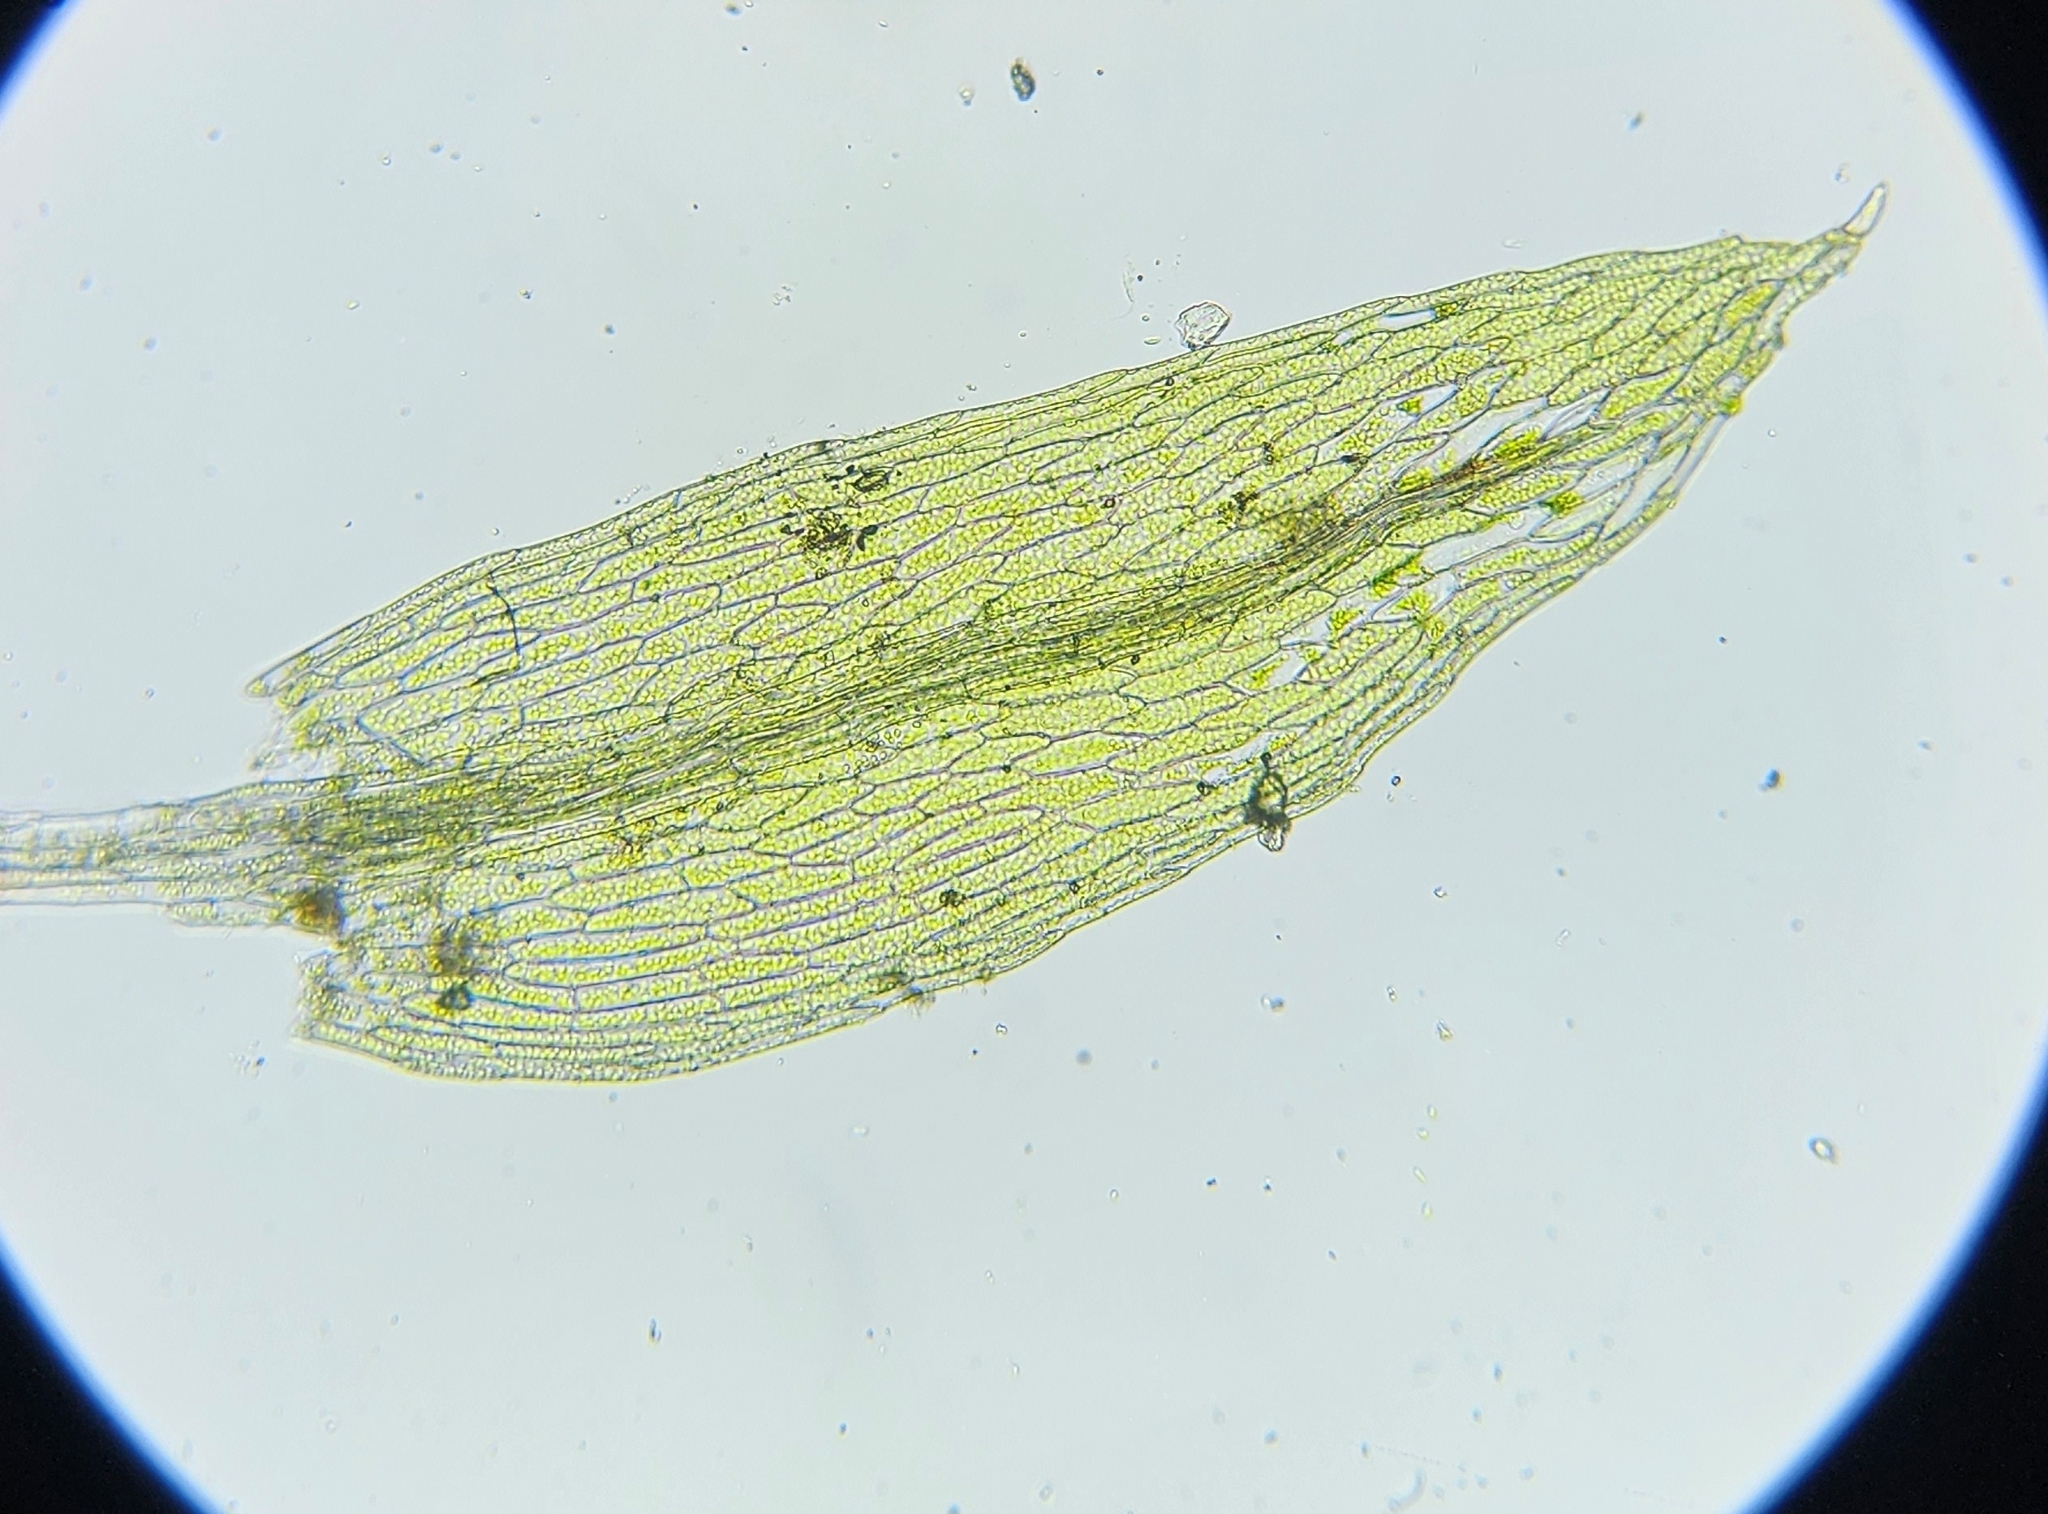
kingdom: Plantae
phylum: Bryophyta
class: Bryopsida
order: Bryales
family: Mniaceae
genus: Pohlia
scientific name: Pohlia melanodon
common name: Black-toothed nodding moss
